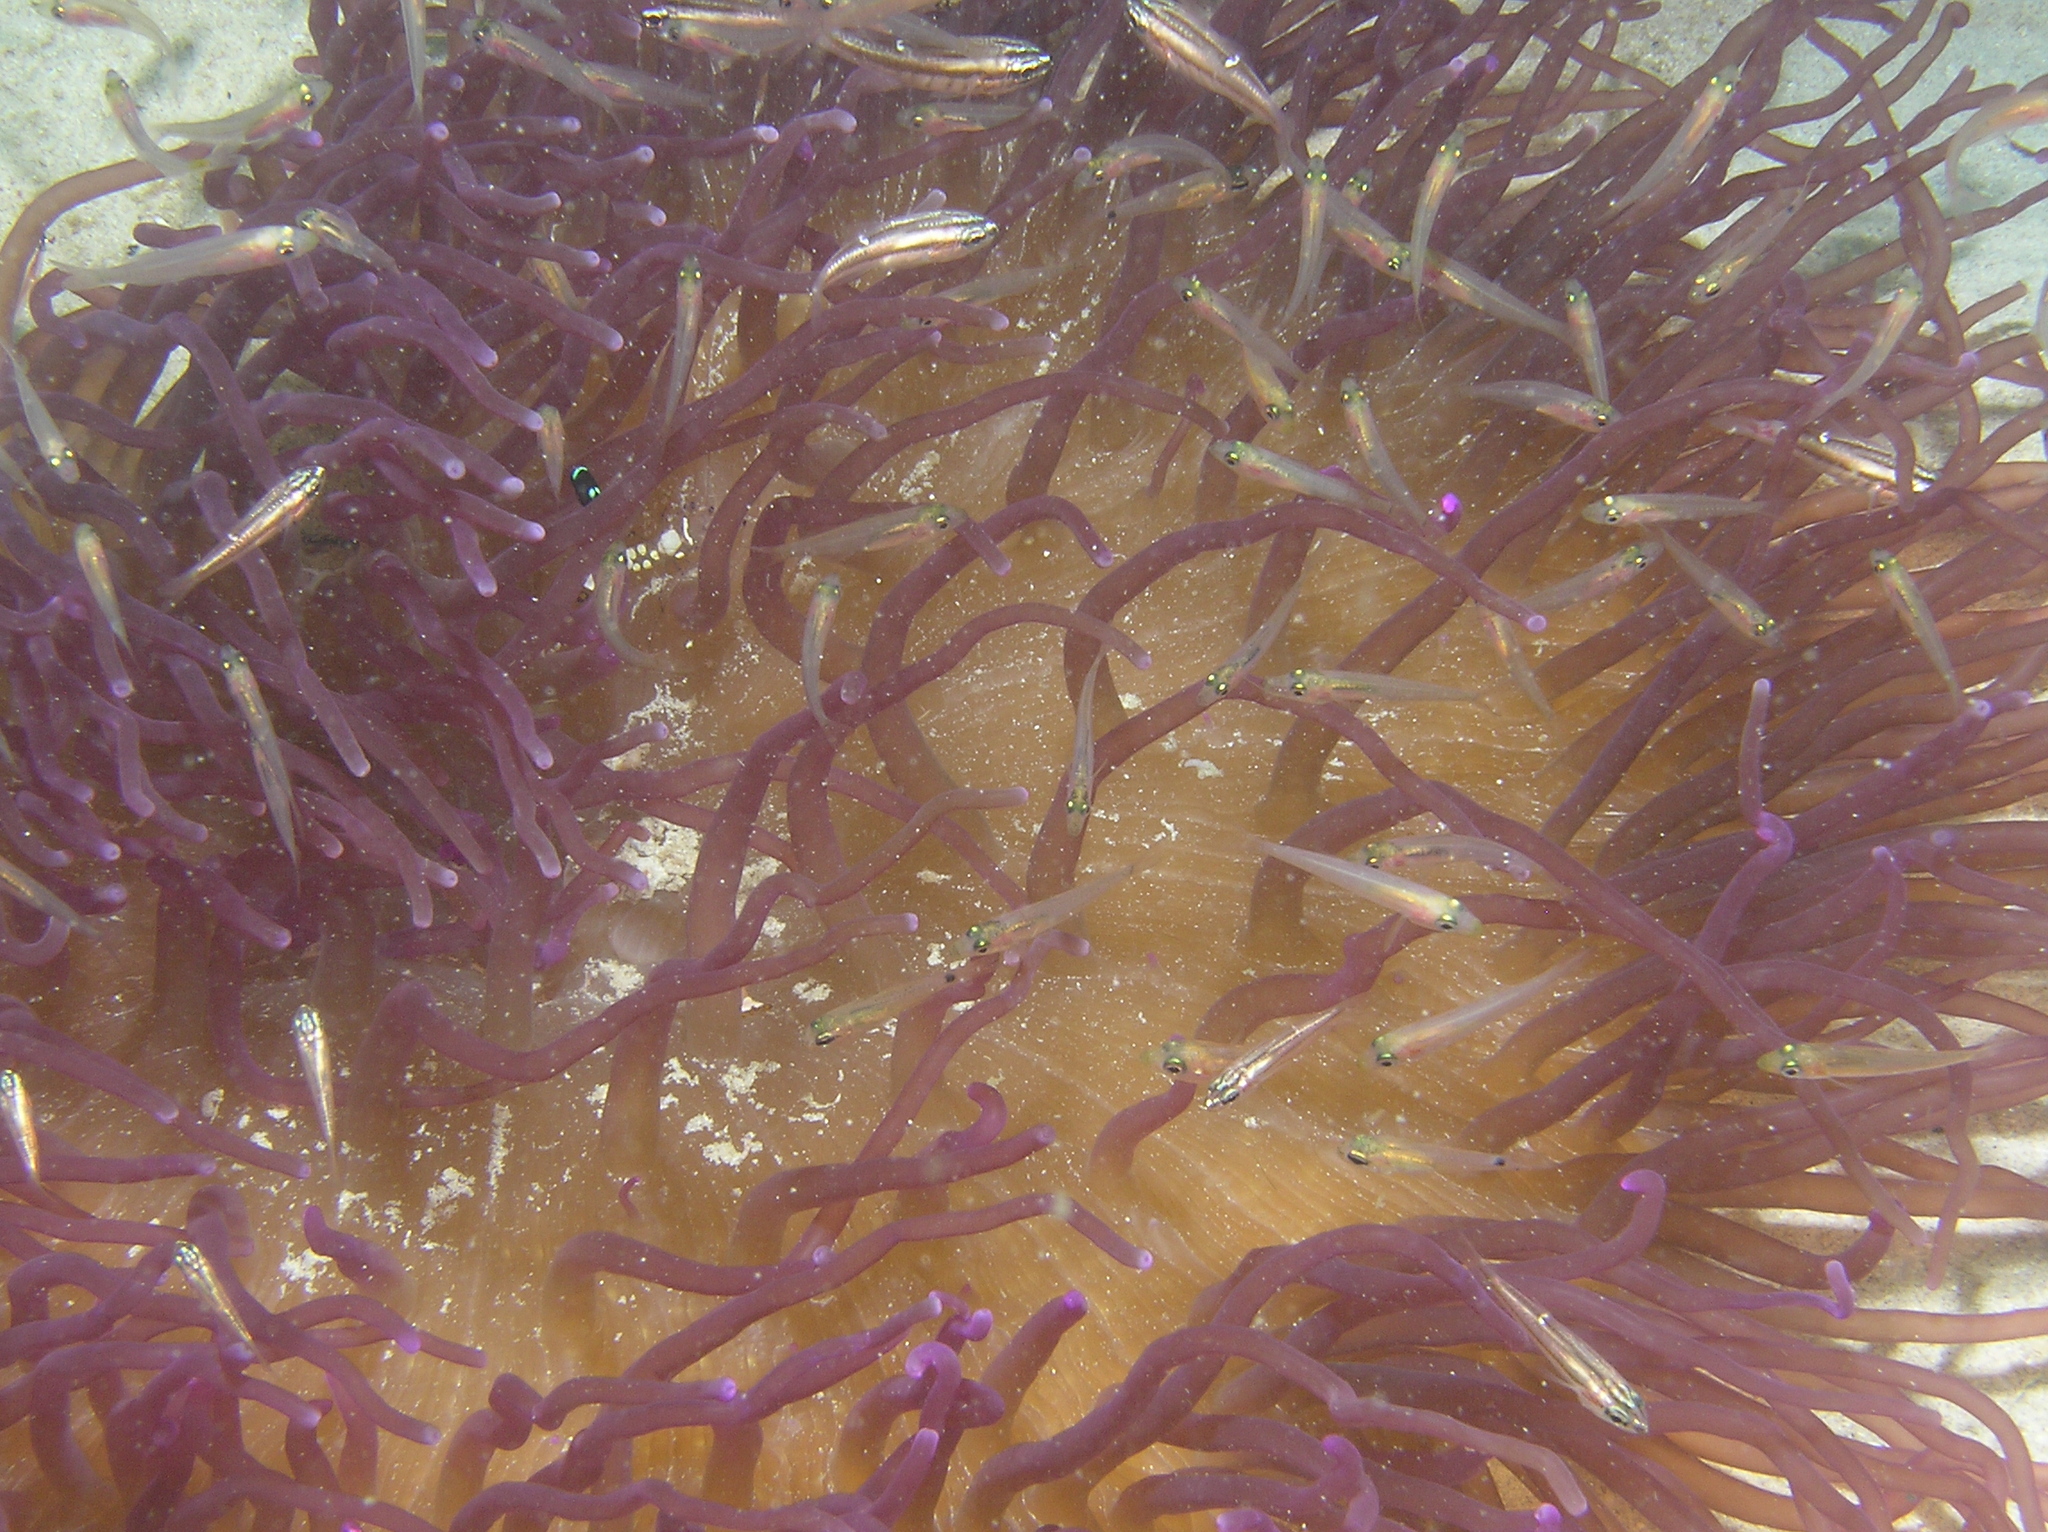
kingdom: Animalia
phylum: Chordata
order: Perciformes
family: Apogonidae
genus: Ostorhinchus
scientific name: Ostorhinchus moluccensis
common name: Moluccan cardinalfish
